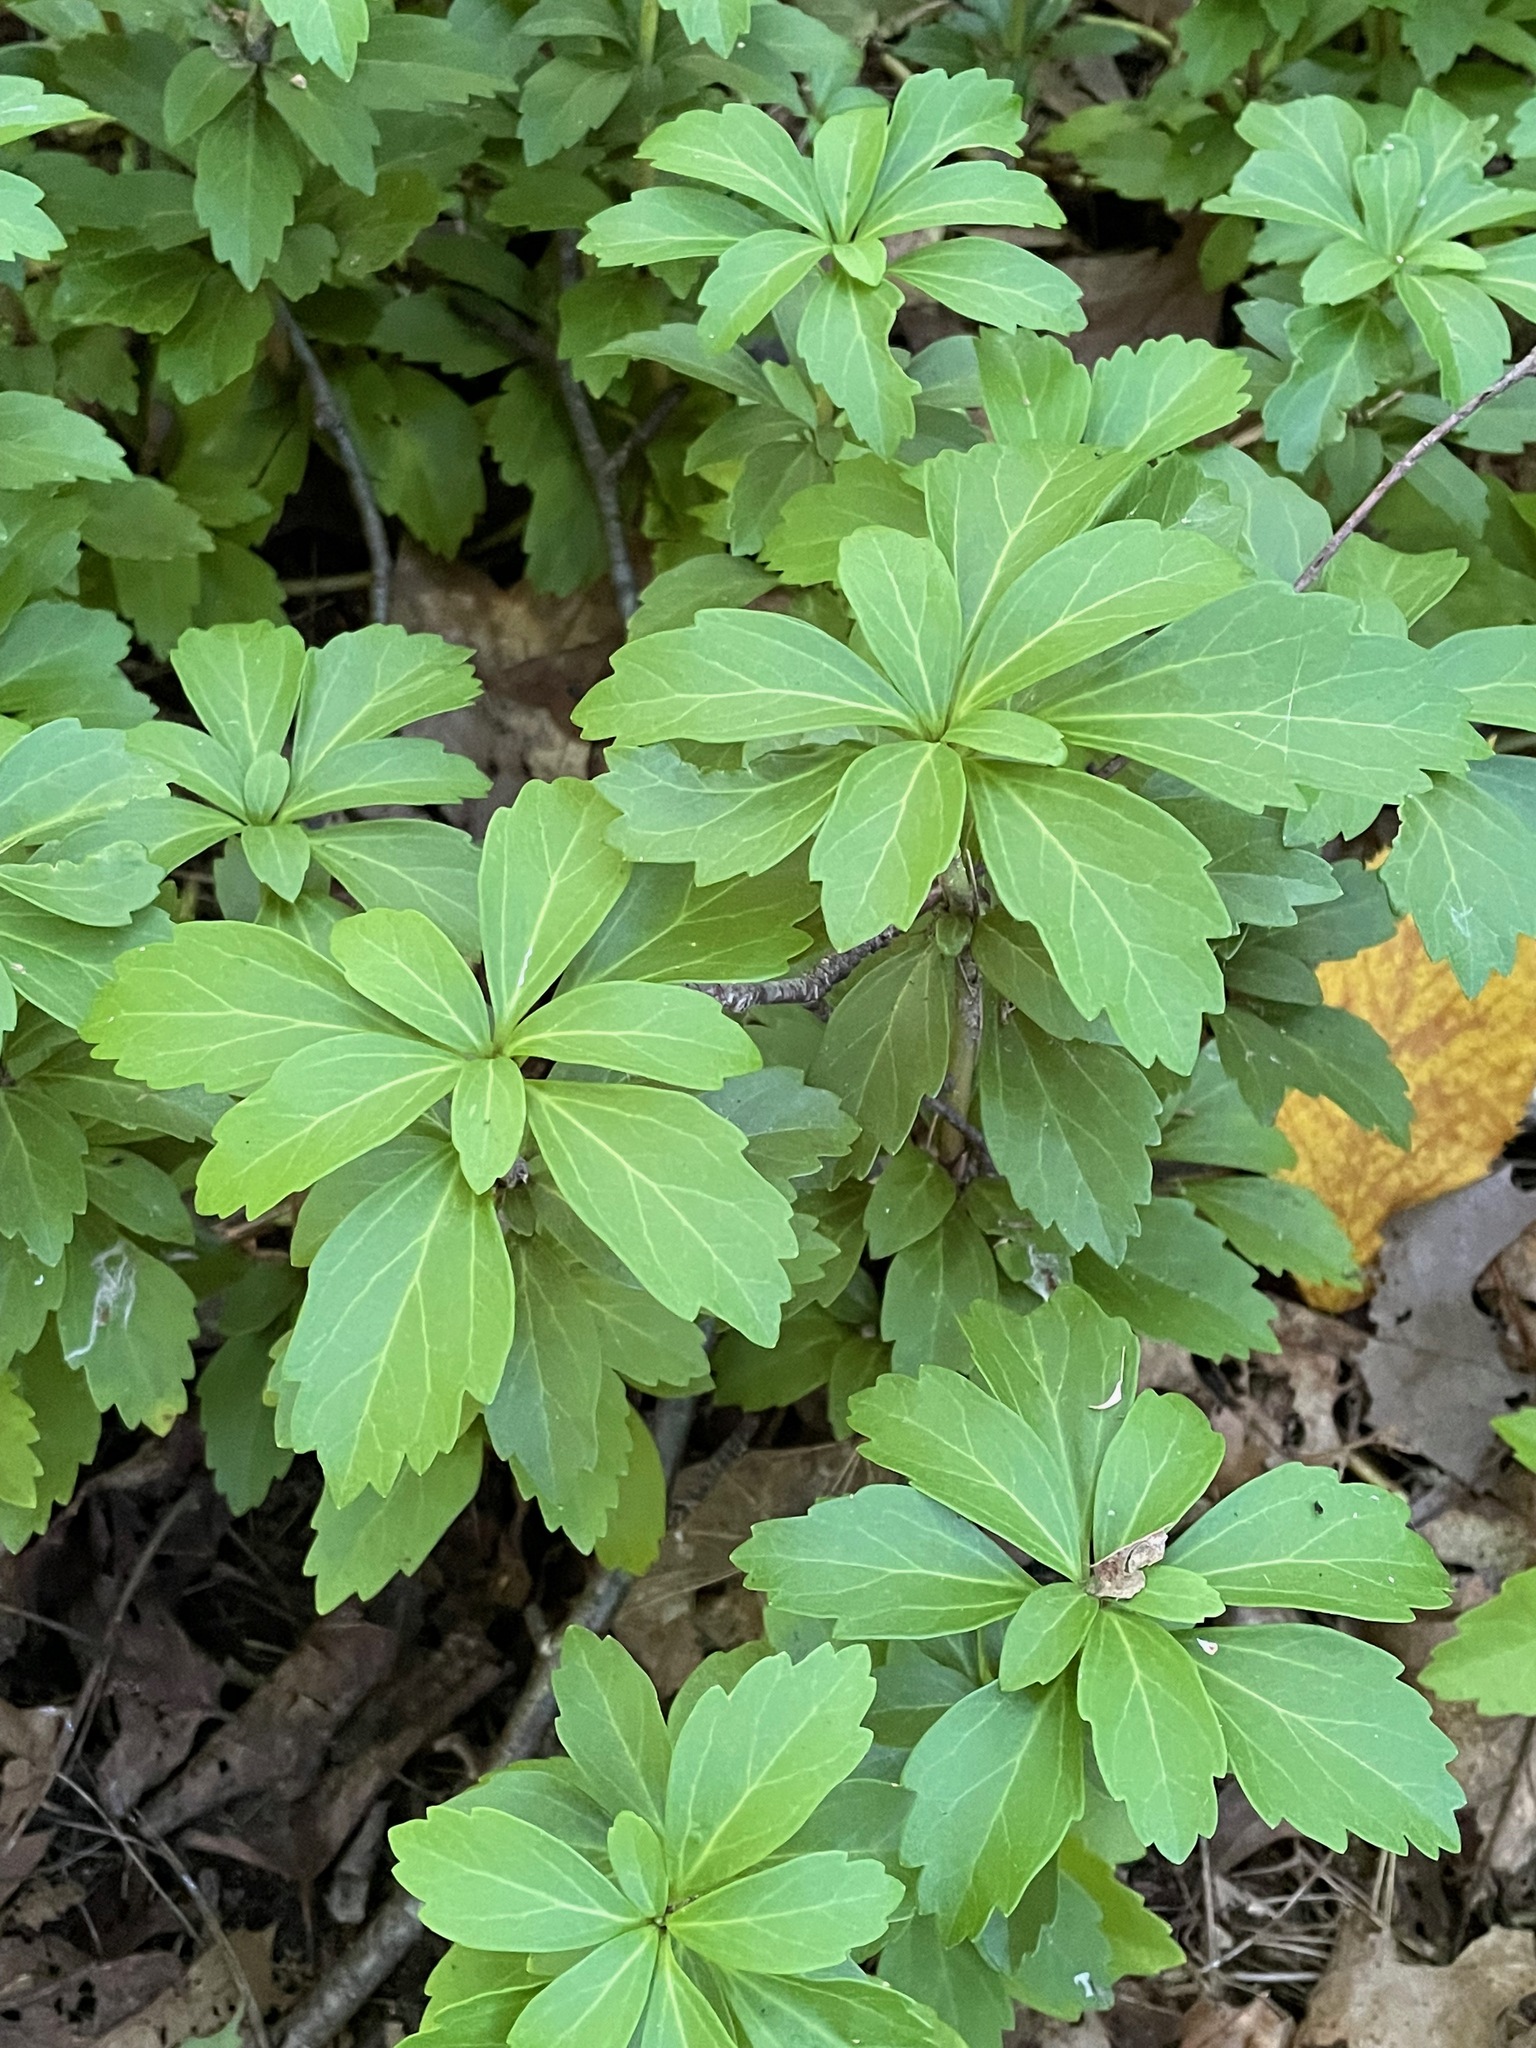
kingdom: Plantae
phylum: Tracheophyta
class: Magnoliopsida
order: Buxales
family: Buxaceae
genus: Pachysandra
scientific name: Pachysandra terminalis
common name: Japanese pachysandra
